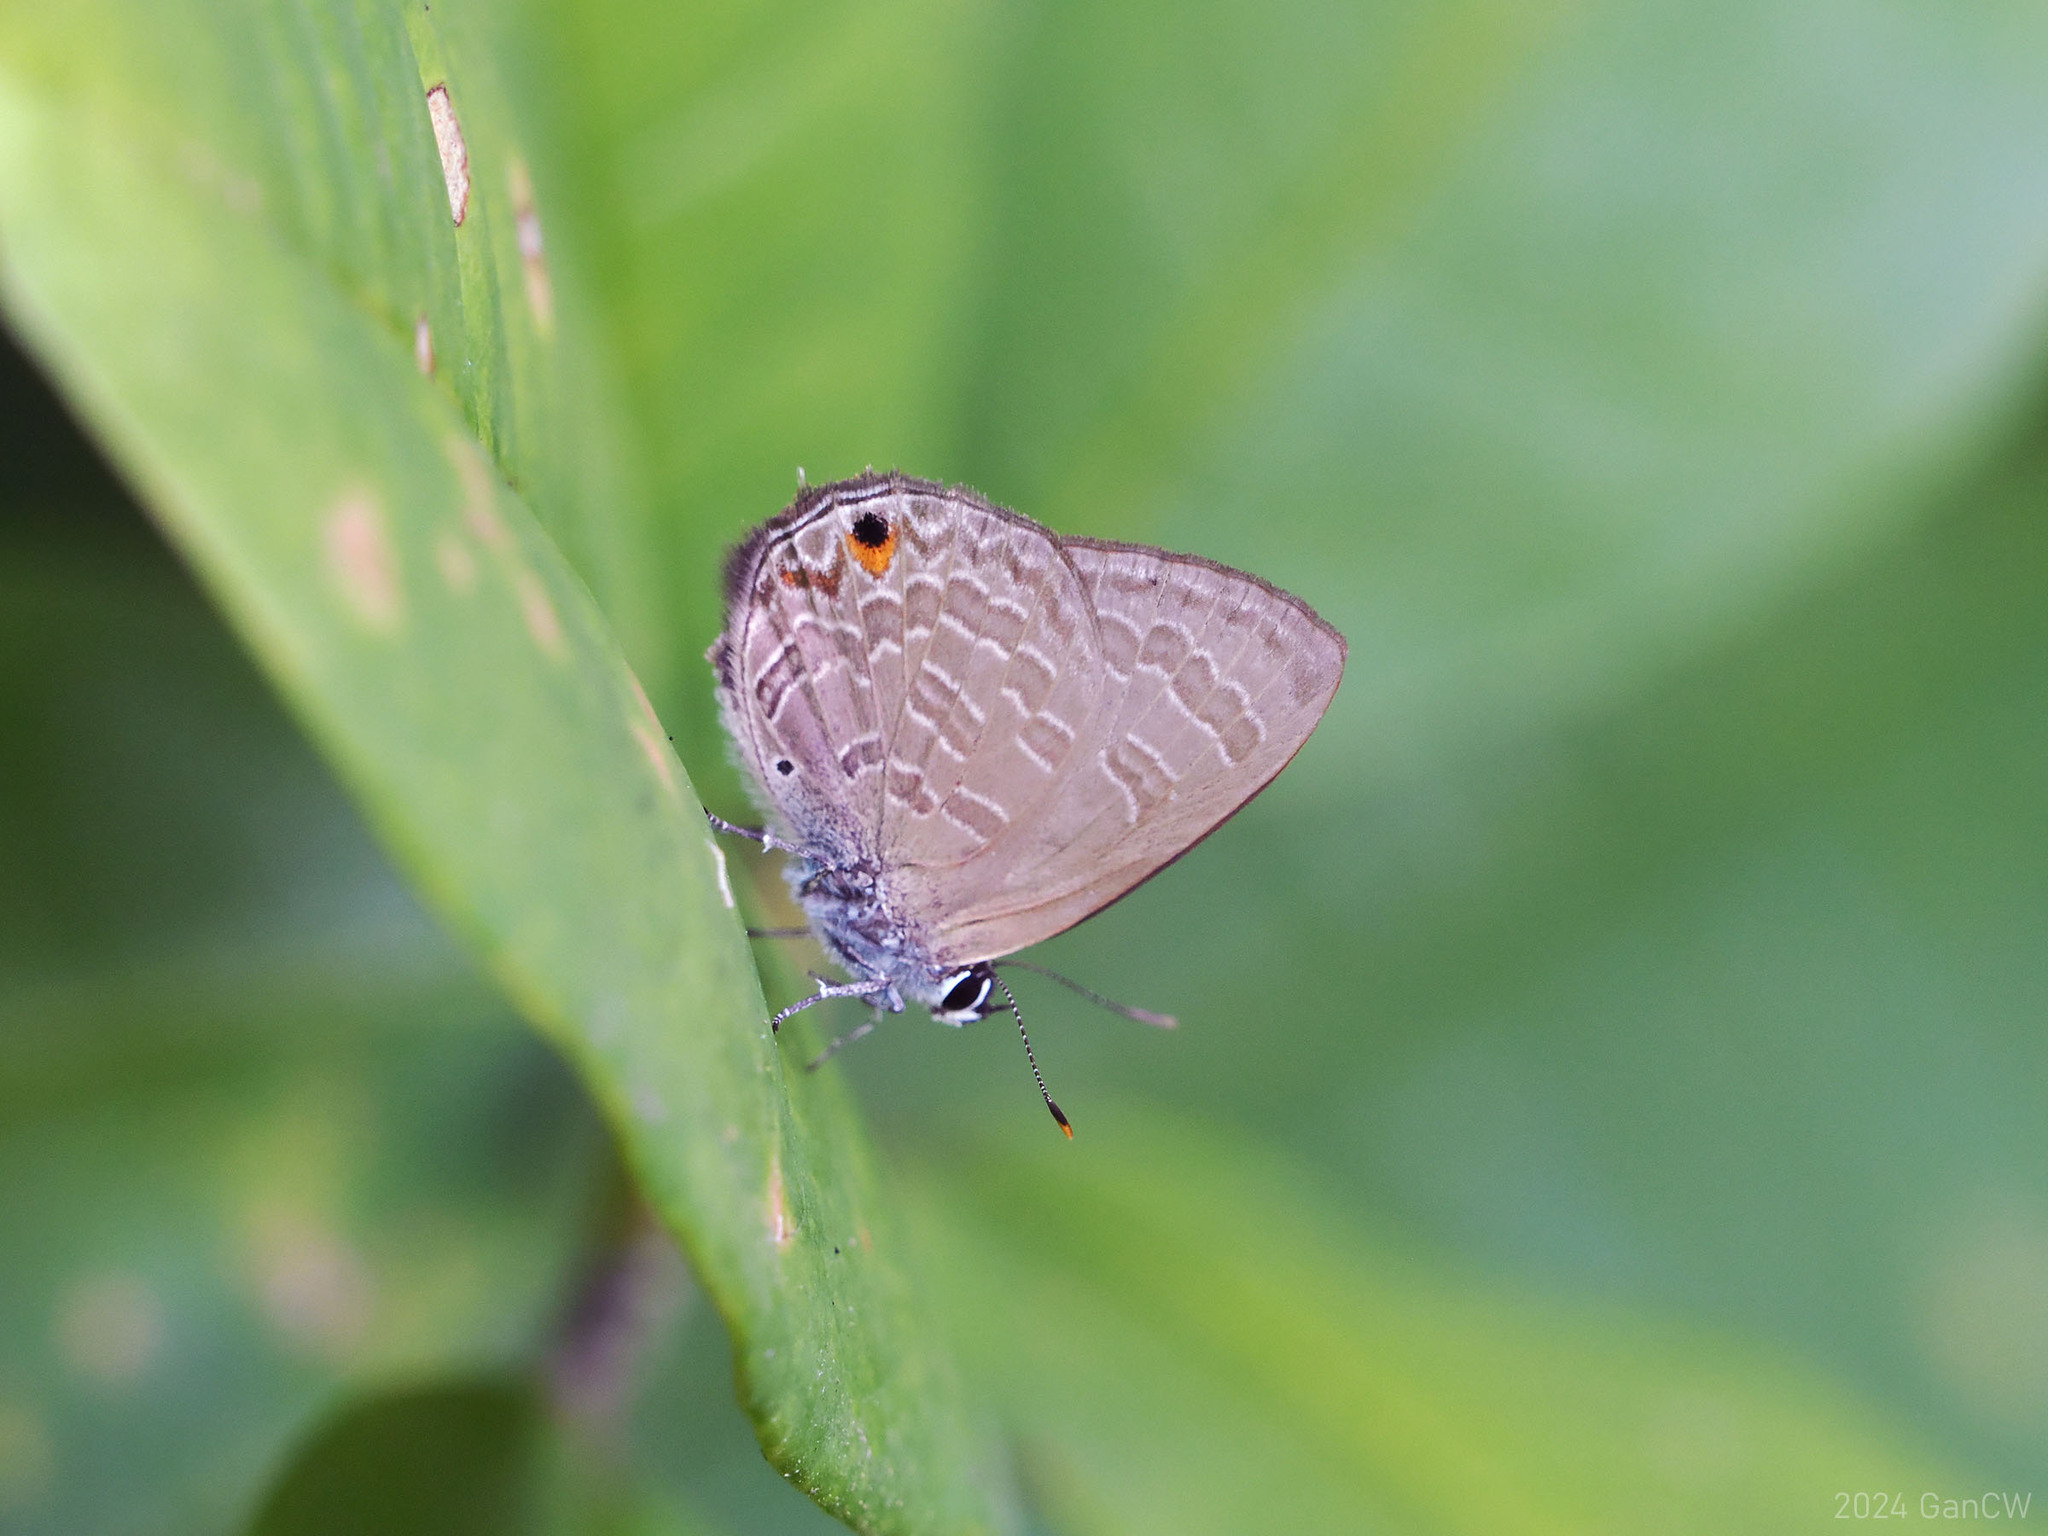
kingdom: Animalia
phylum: Arthropoda
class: Insecta
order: Lepidoptera
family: Lycaenidae
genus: Anthene
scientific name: Anthene emolus
